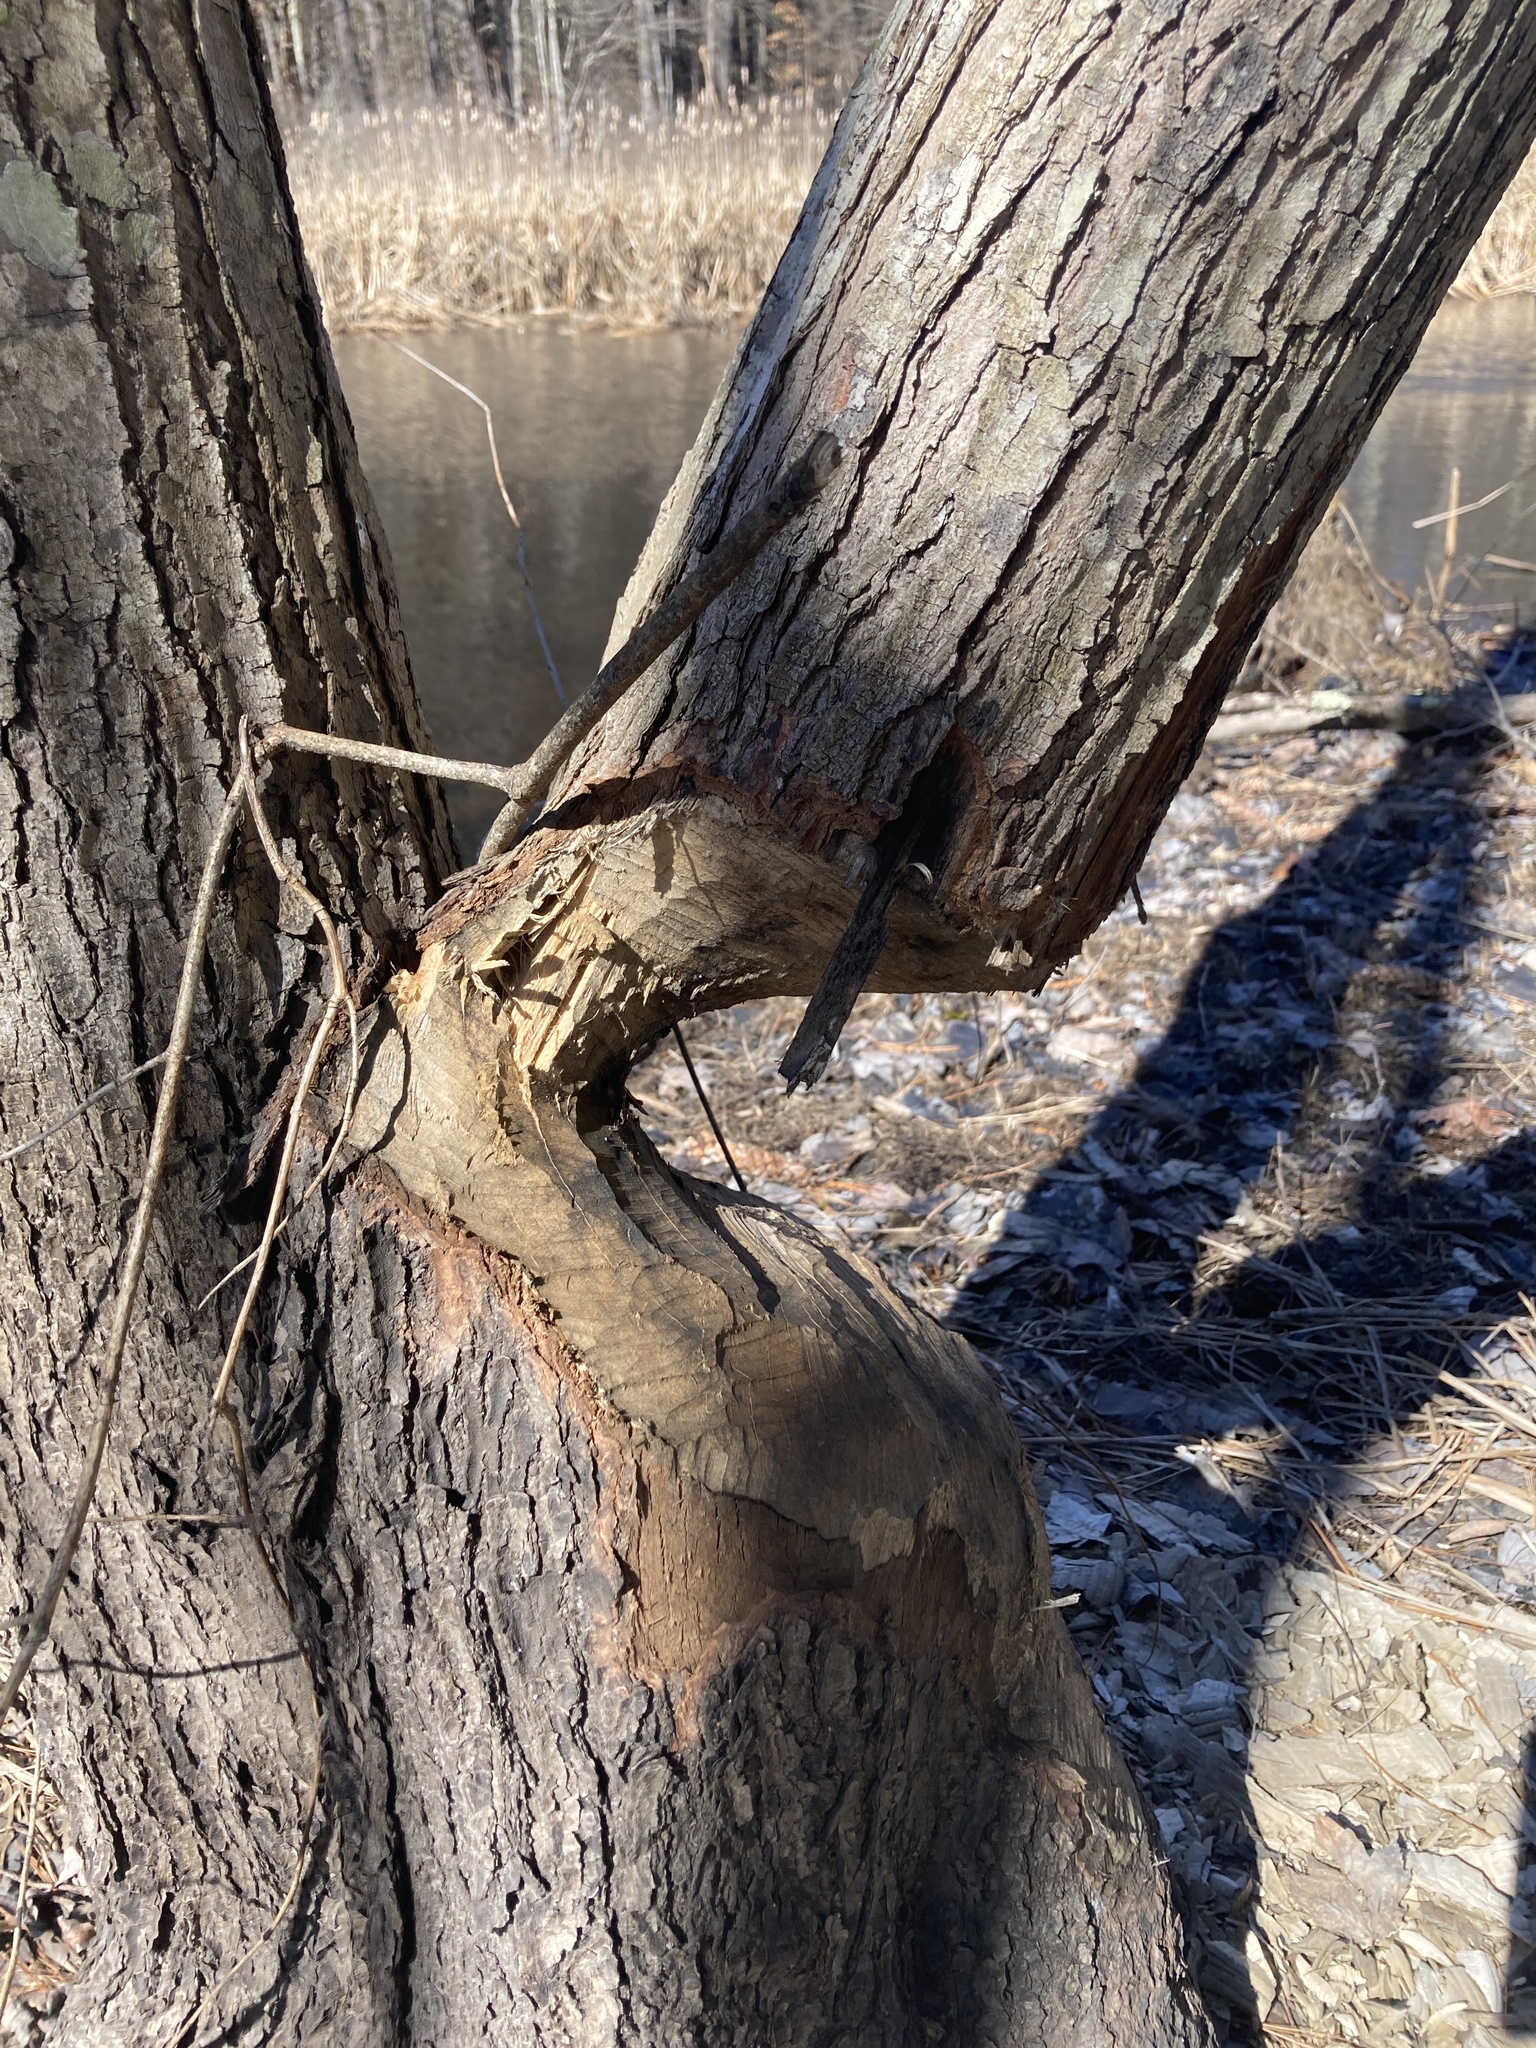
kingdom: Animalia
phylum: Chordata
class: Mammalia
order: Rodentia
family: Castoridae
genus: Castor
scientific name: Castor canadensis
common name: American beaver
